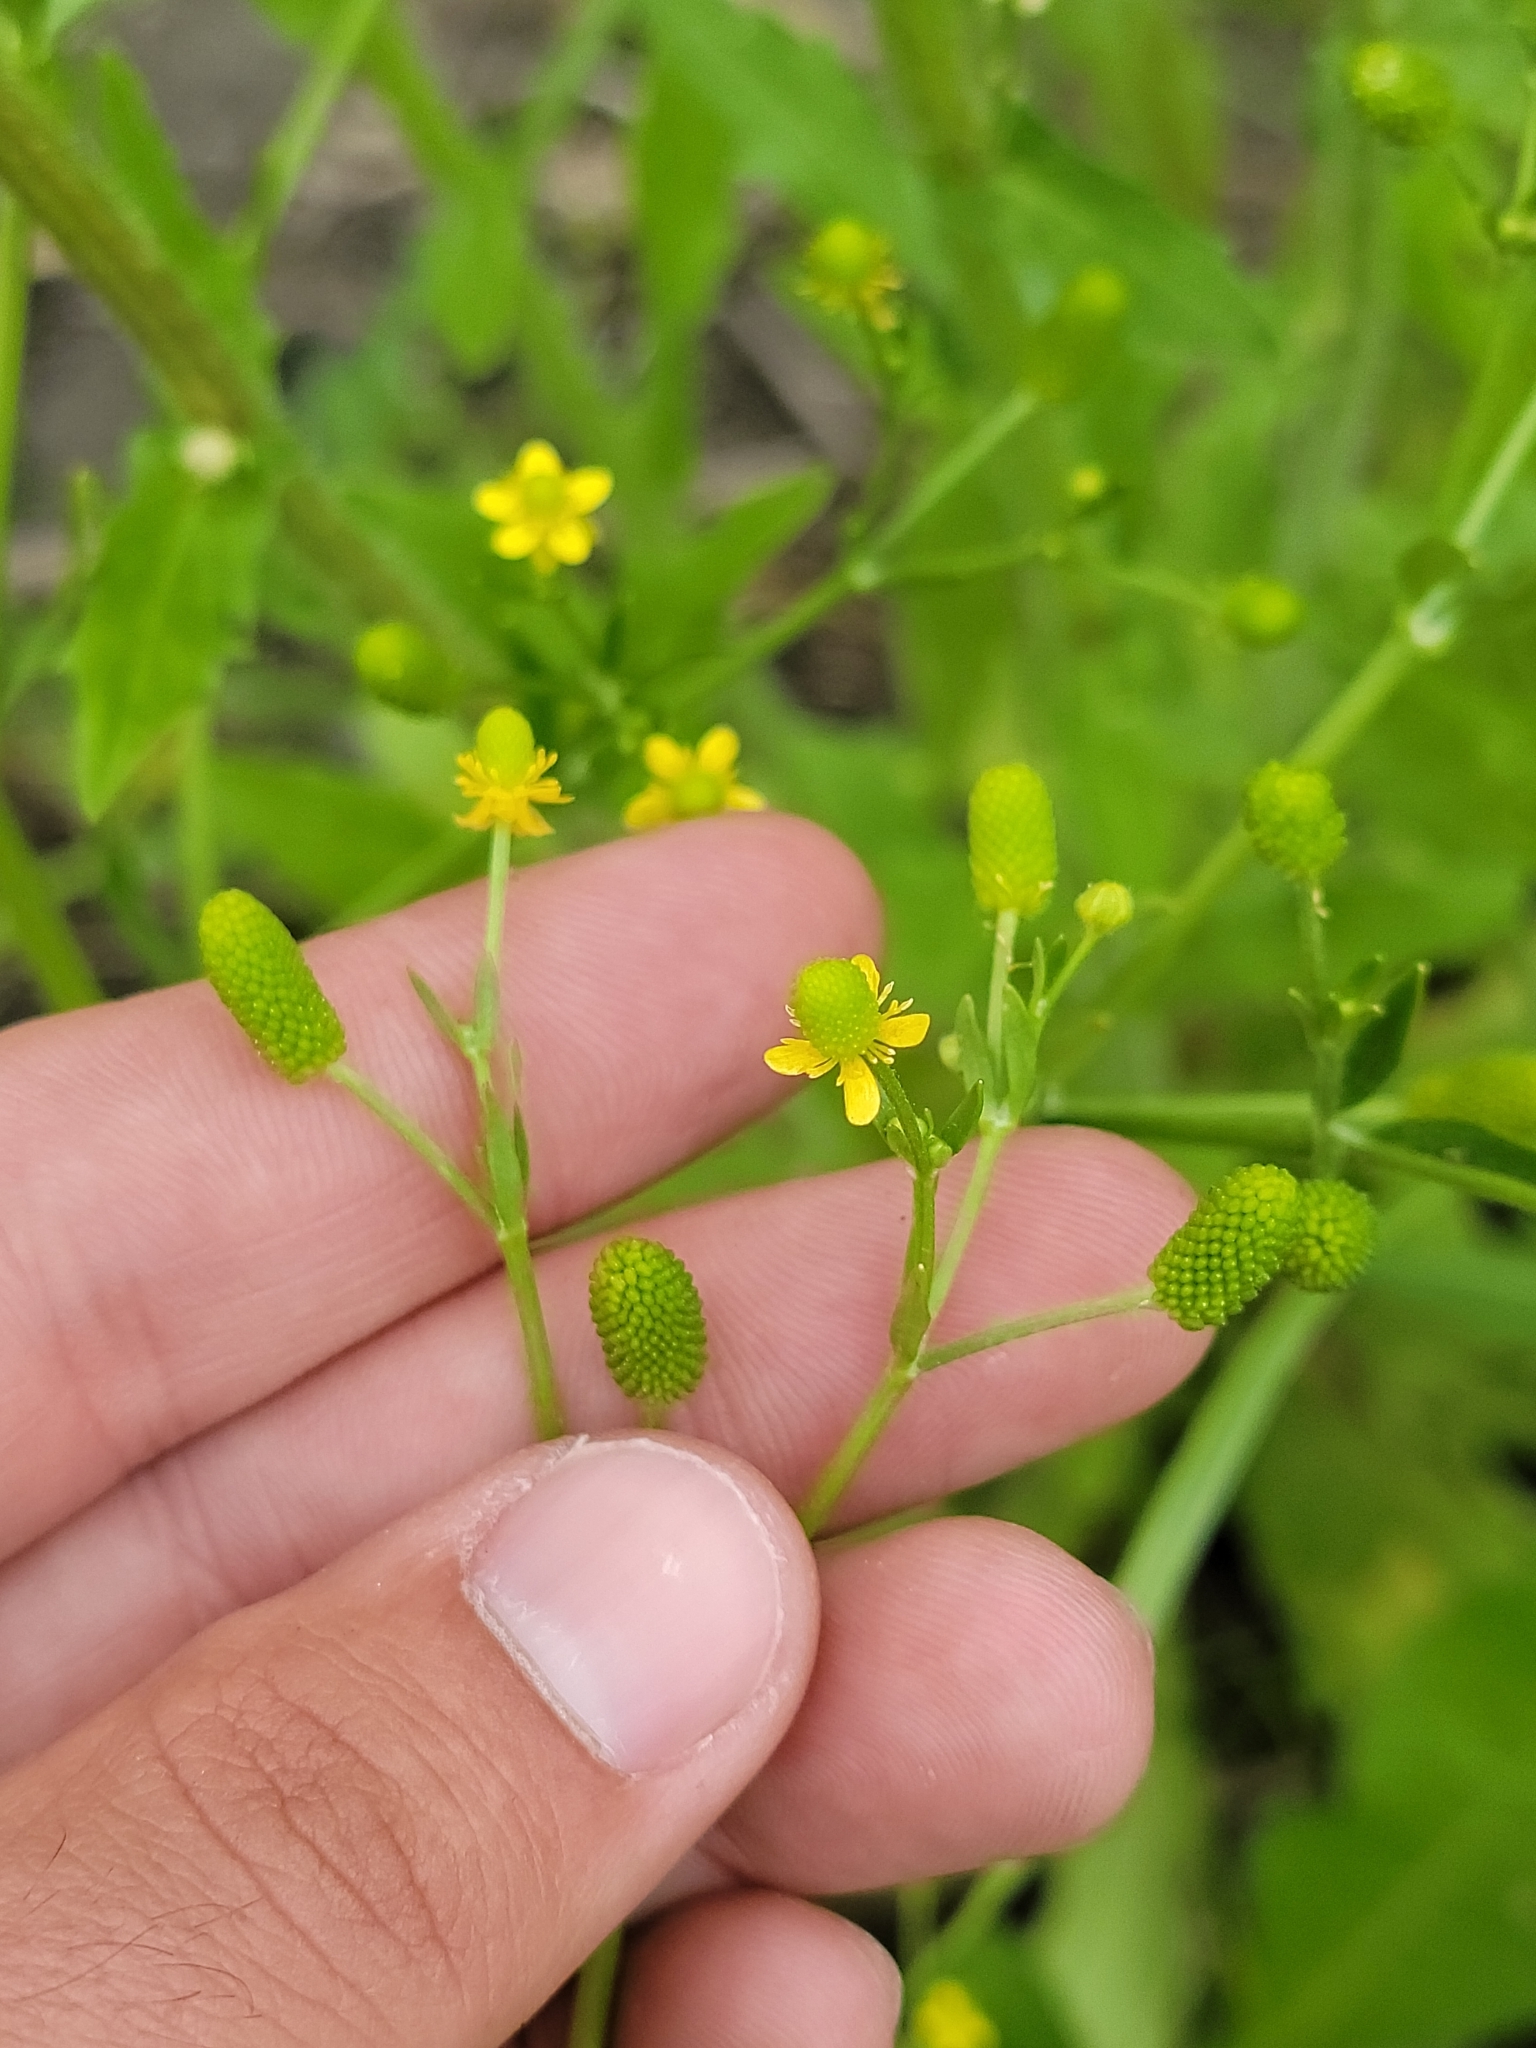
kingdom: Plantae
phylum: Tracheophyta
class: Magnoliopsida
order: Ranunculales
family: Ranunculaceae
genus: Ranunculus
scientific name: Ranunculus sceleratus
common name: Celery-leaved buttercup
